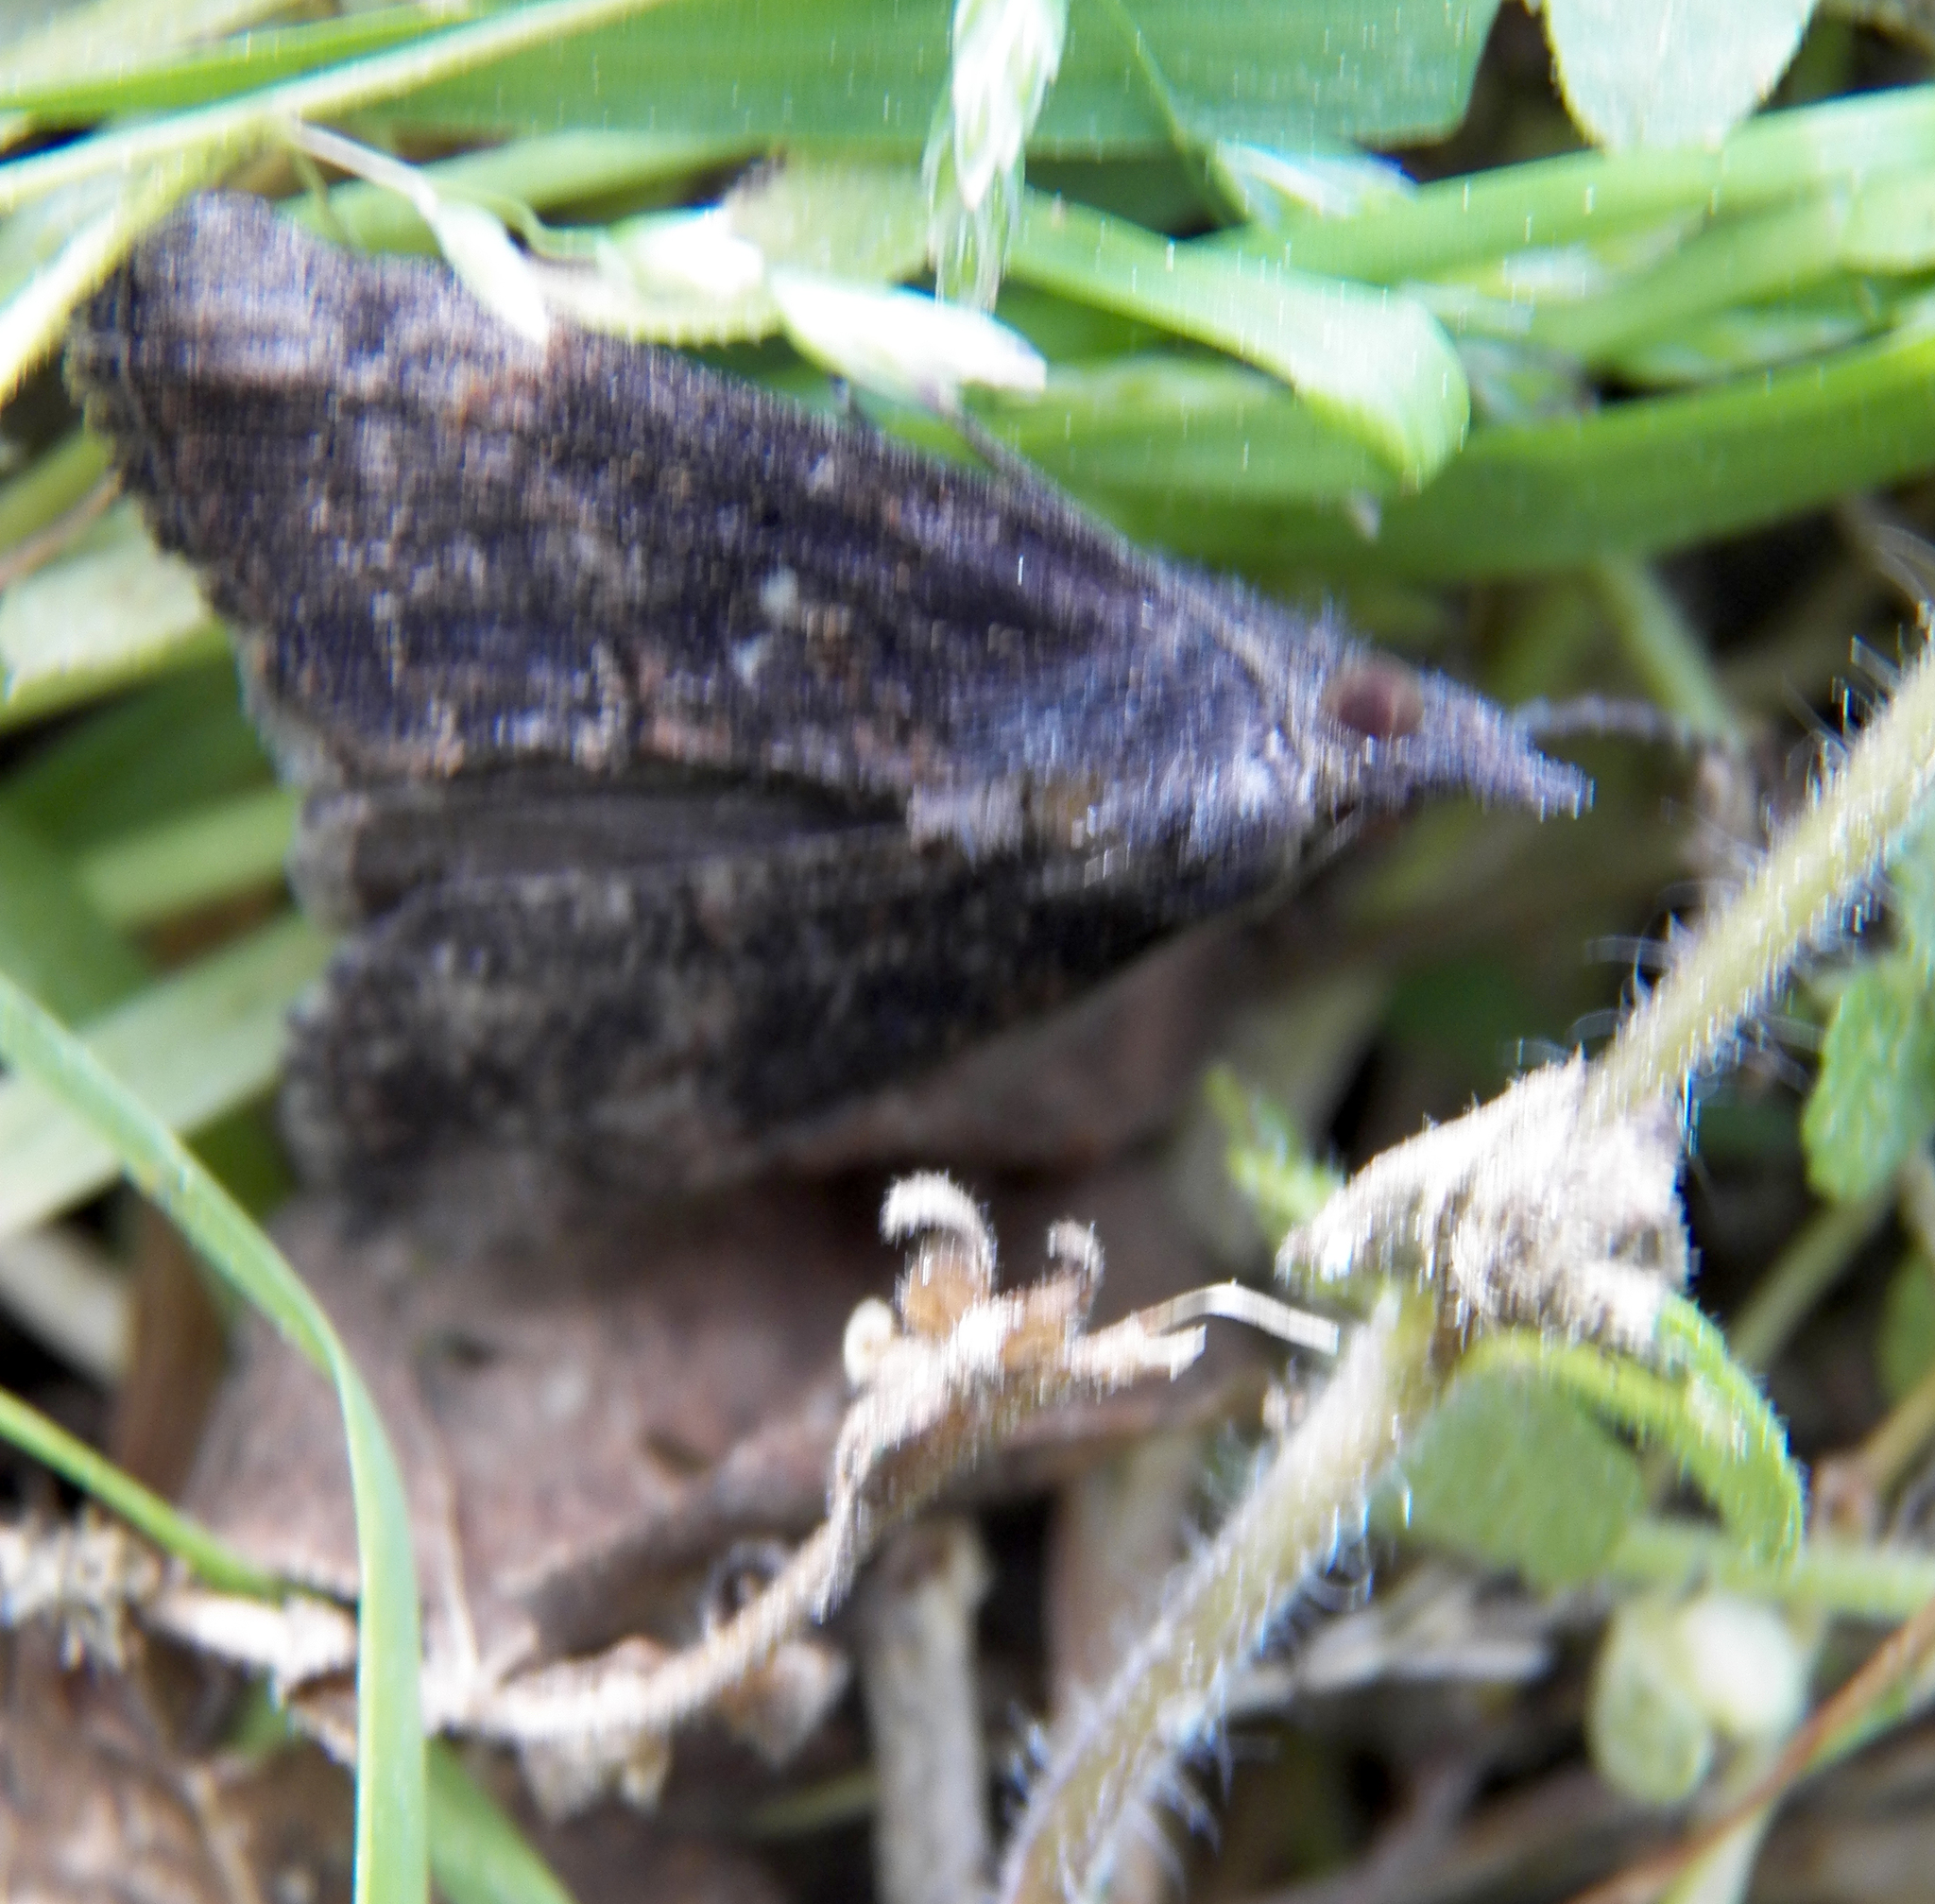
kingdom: Animalia
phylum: Arthropoda
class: Insecta
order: Lepidoptera
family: Erebidae
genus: Hypena
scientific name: Hypena scabra
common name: Green cloverworm
